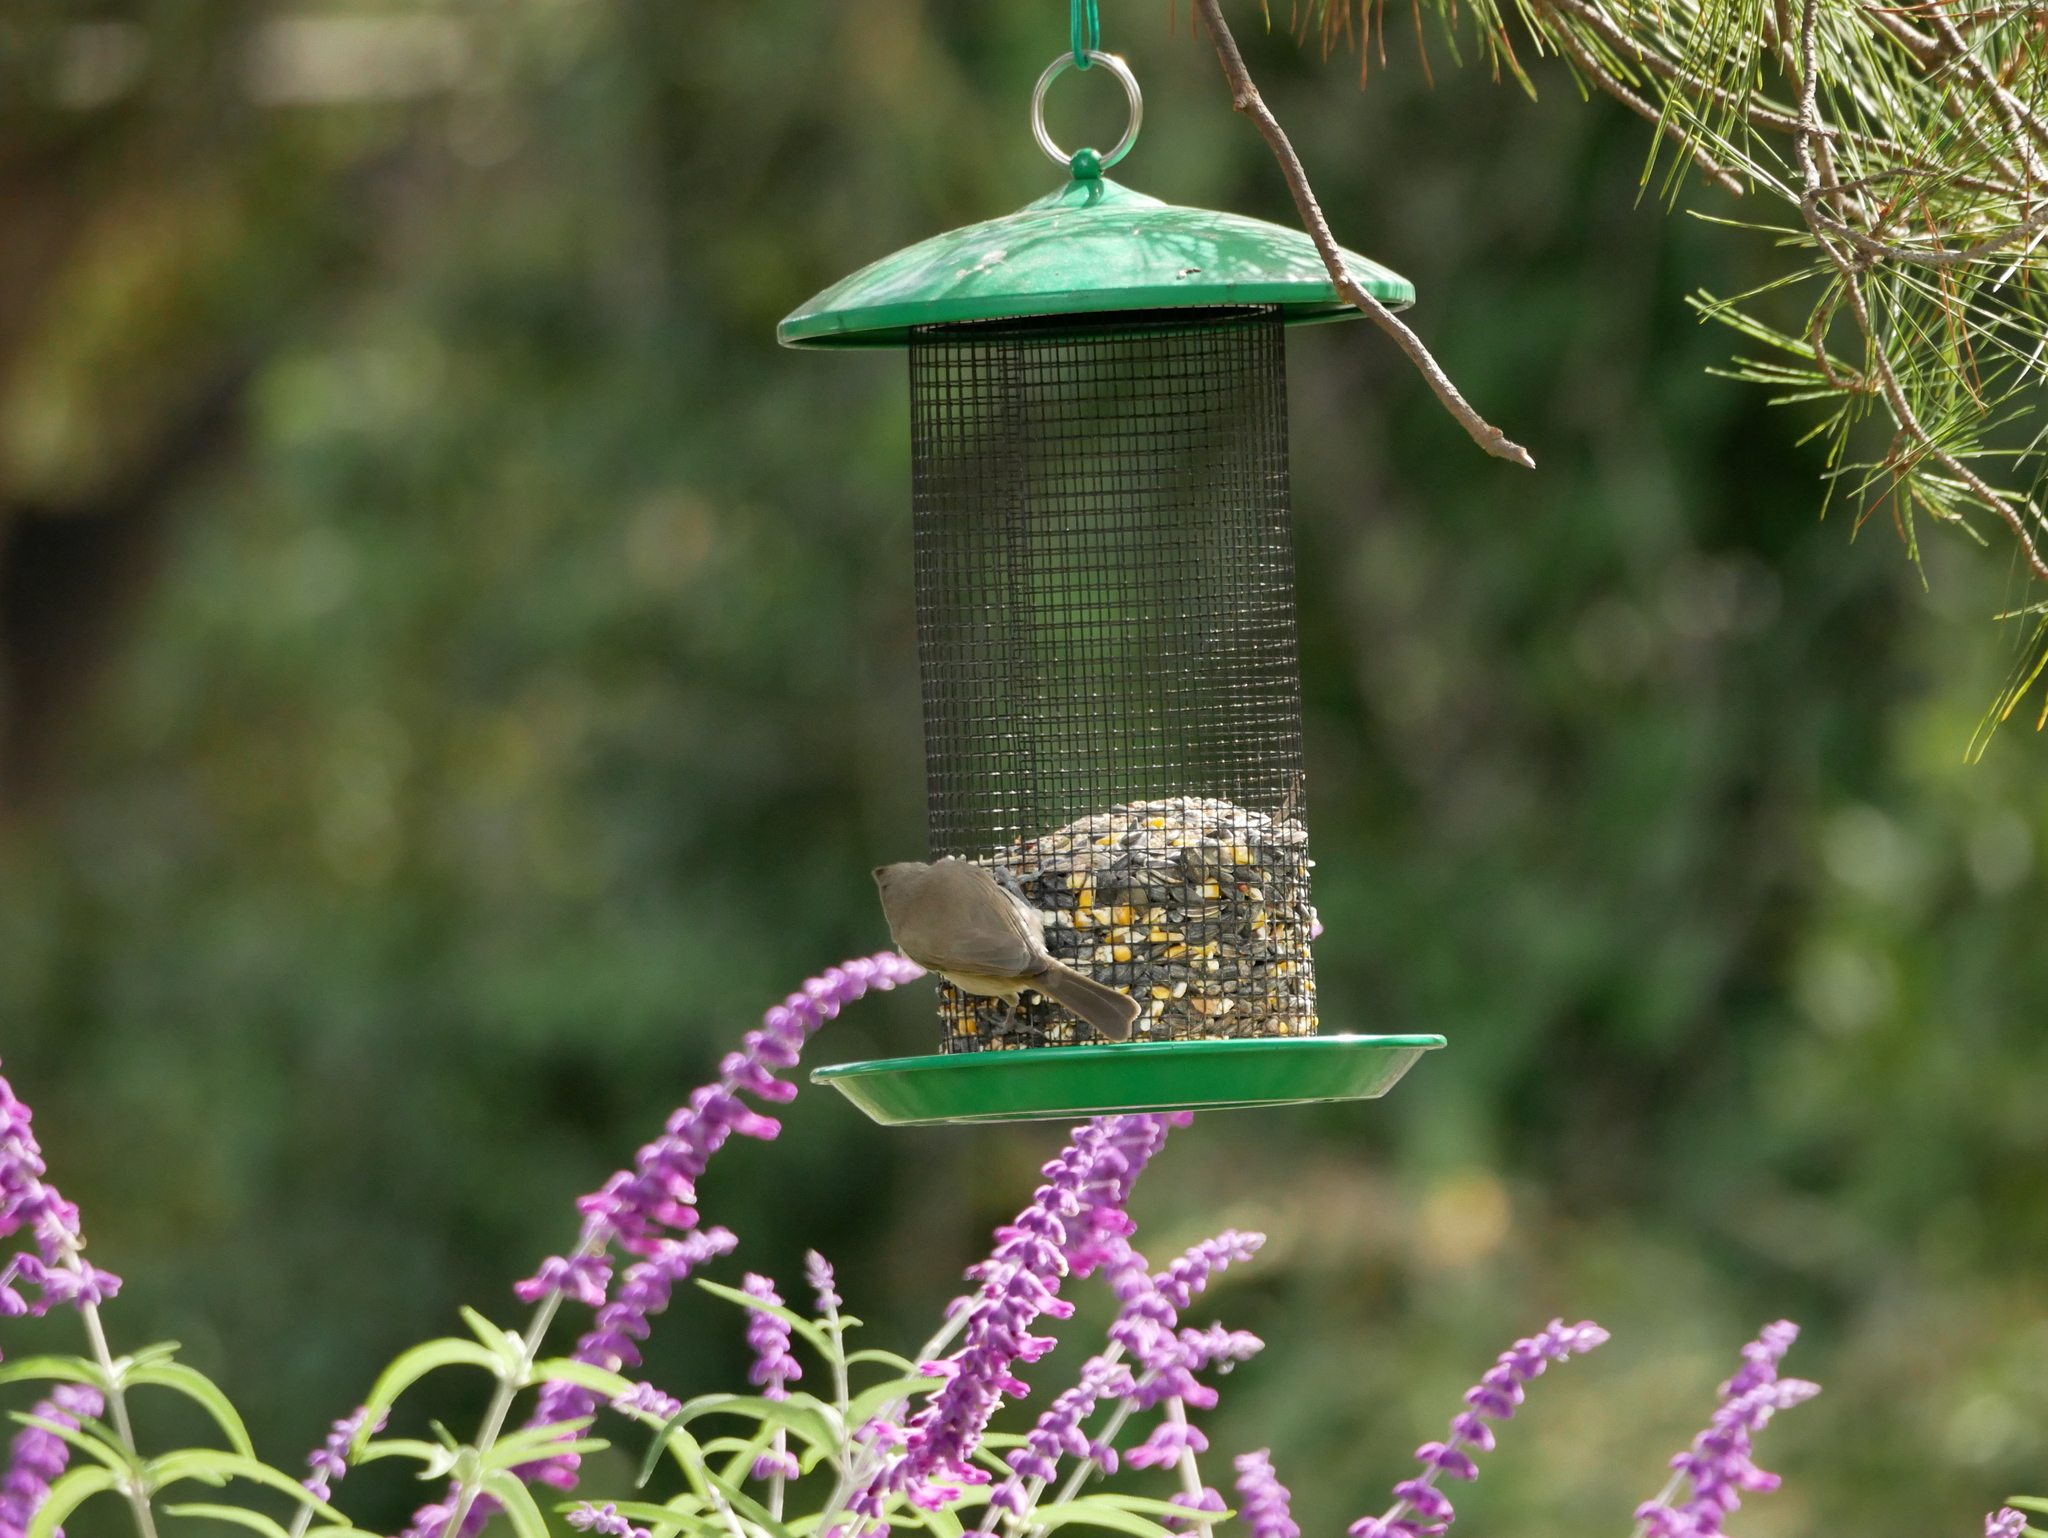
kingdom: Animalia
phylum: Chordata
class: Aves
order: Passeriformes
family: Paridae
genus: Baeolophus
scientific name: Baeolophus inornatus
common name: Oak titmouse
